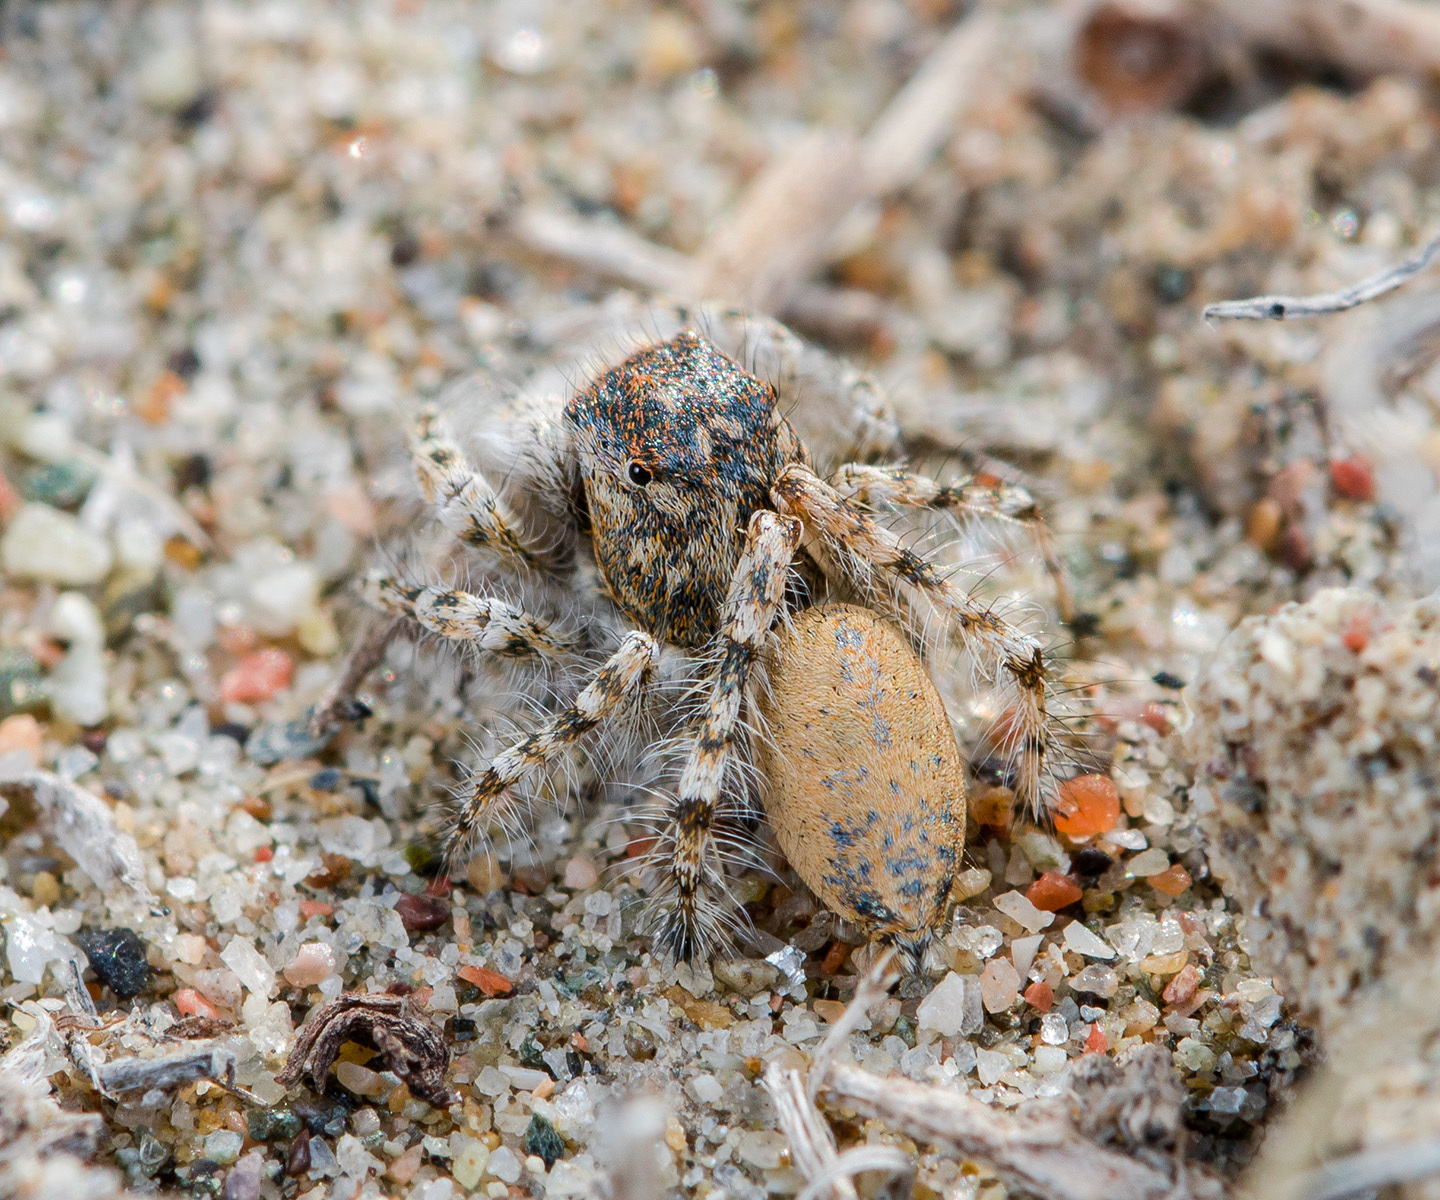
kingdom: Animalia
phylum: Arthropoda
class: Arachnida
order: Araneae
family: Salticidae
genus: Yllenus
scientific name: Yllenus uiguricus
